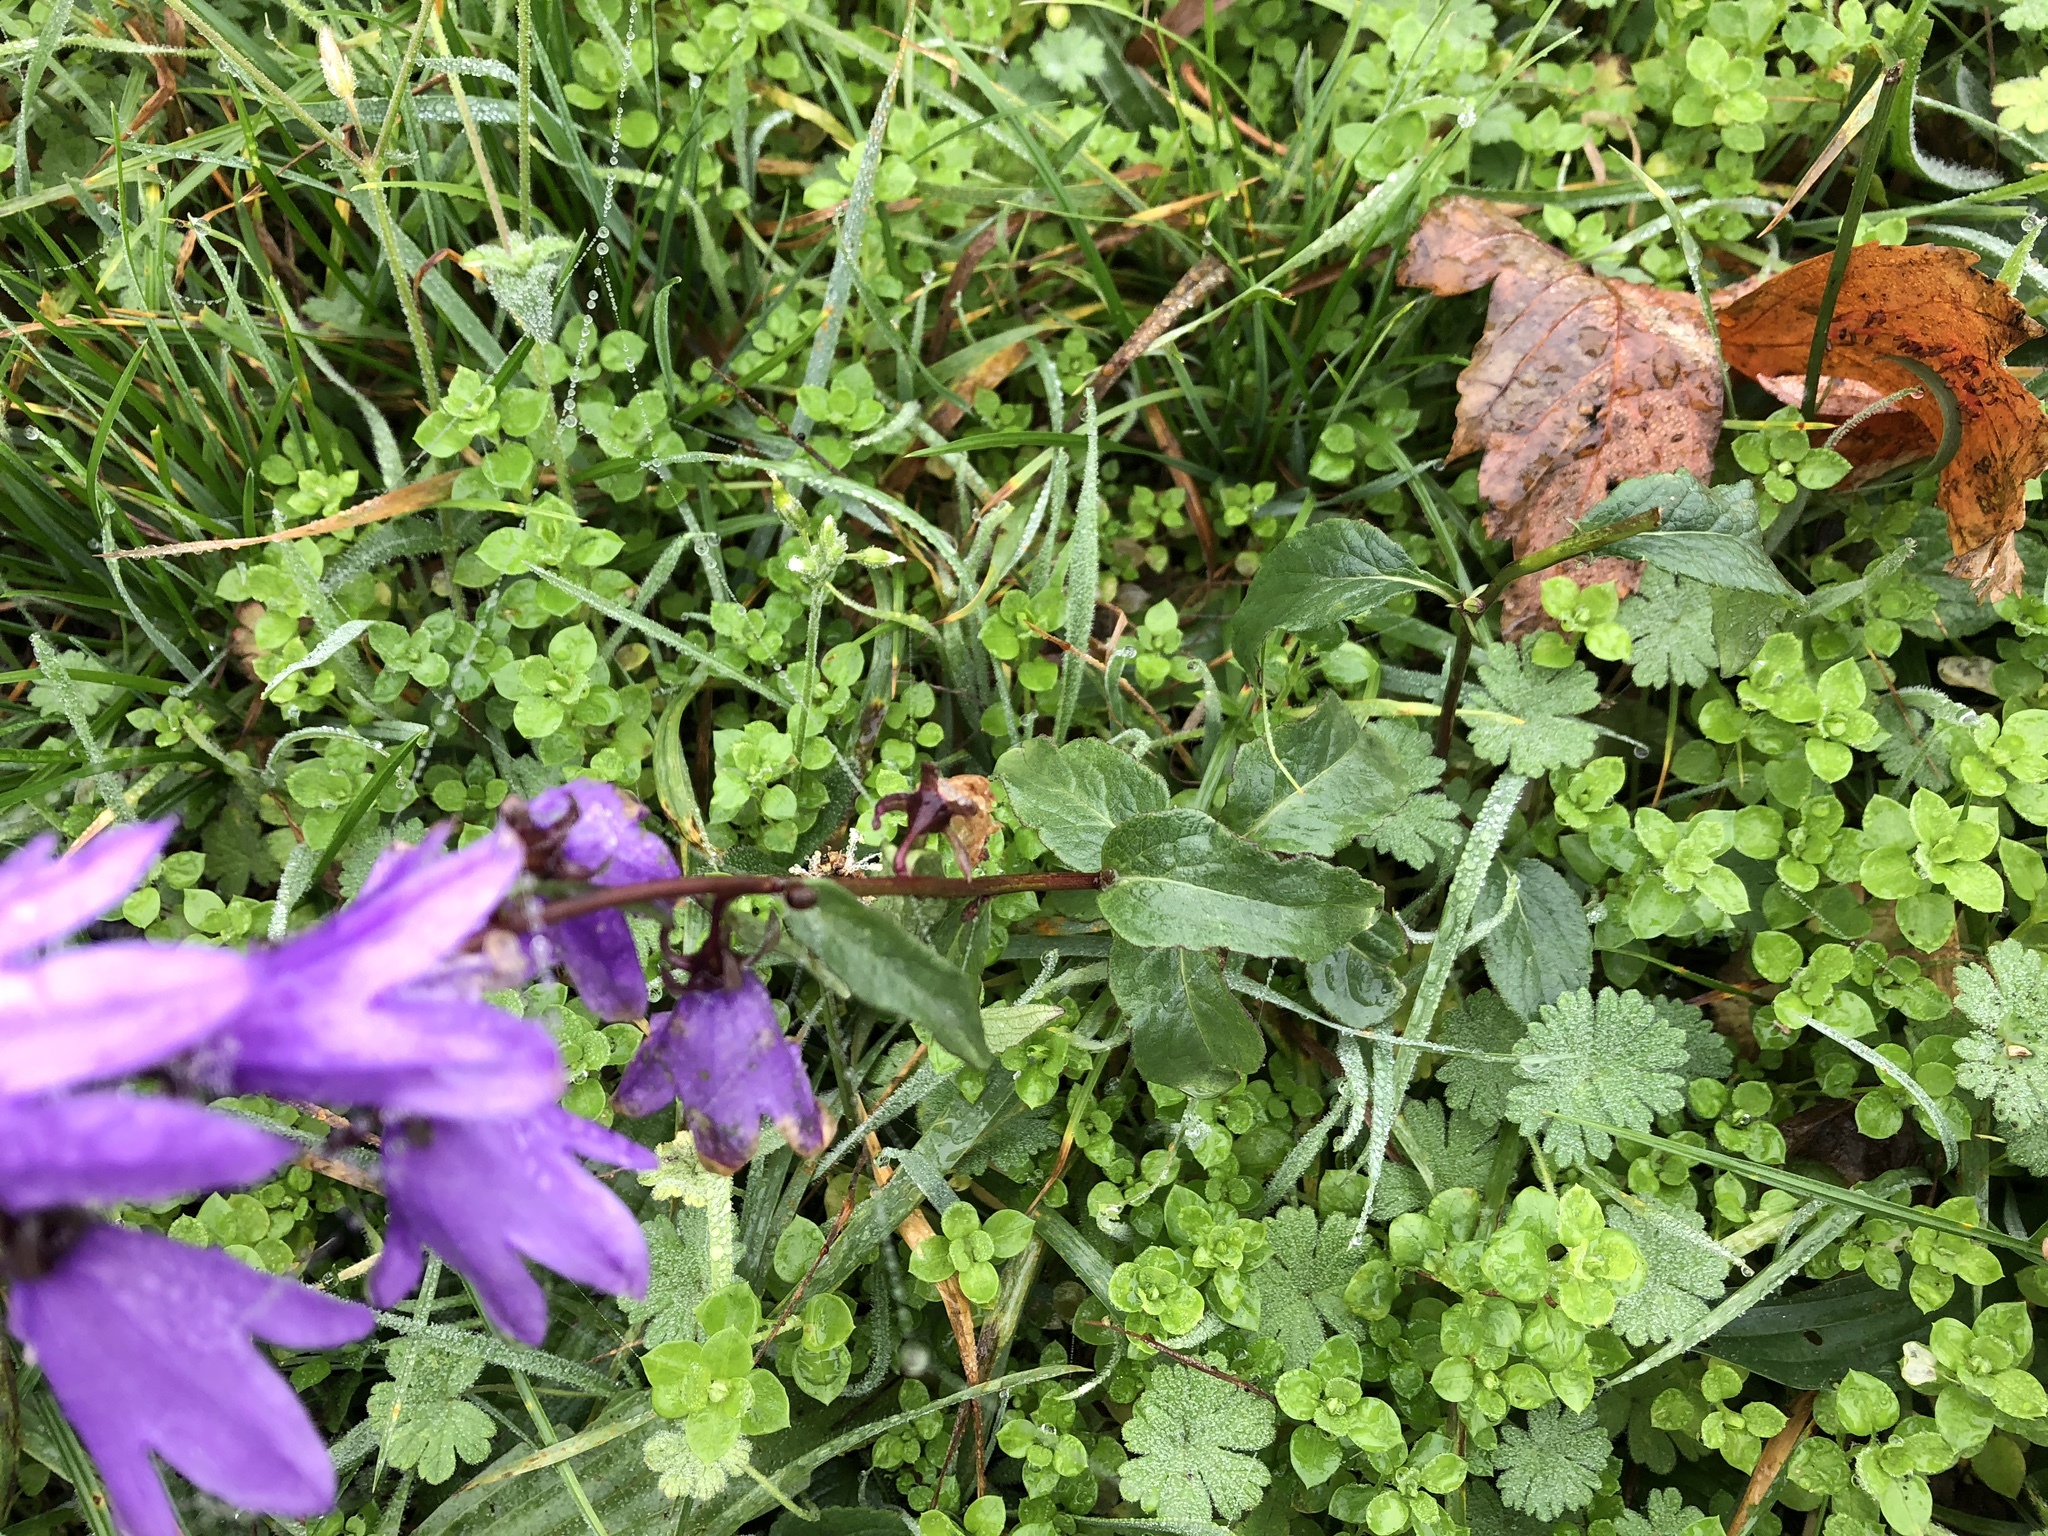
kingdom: Plantae
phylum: Tracheophyta
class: Magnoliopsida
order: Asterales
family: Campanulaceae
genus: Campanula
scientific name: Campanula rapunculoides
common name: Creeping bellflower
